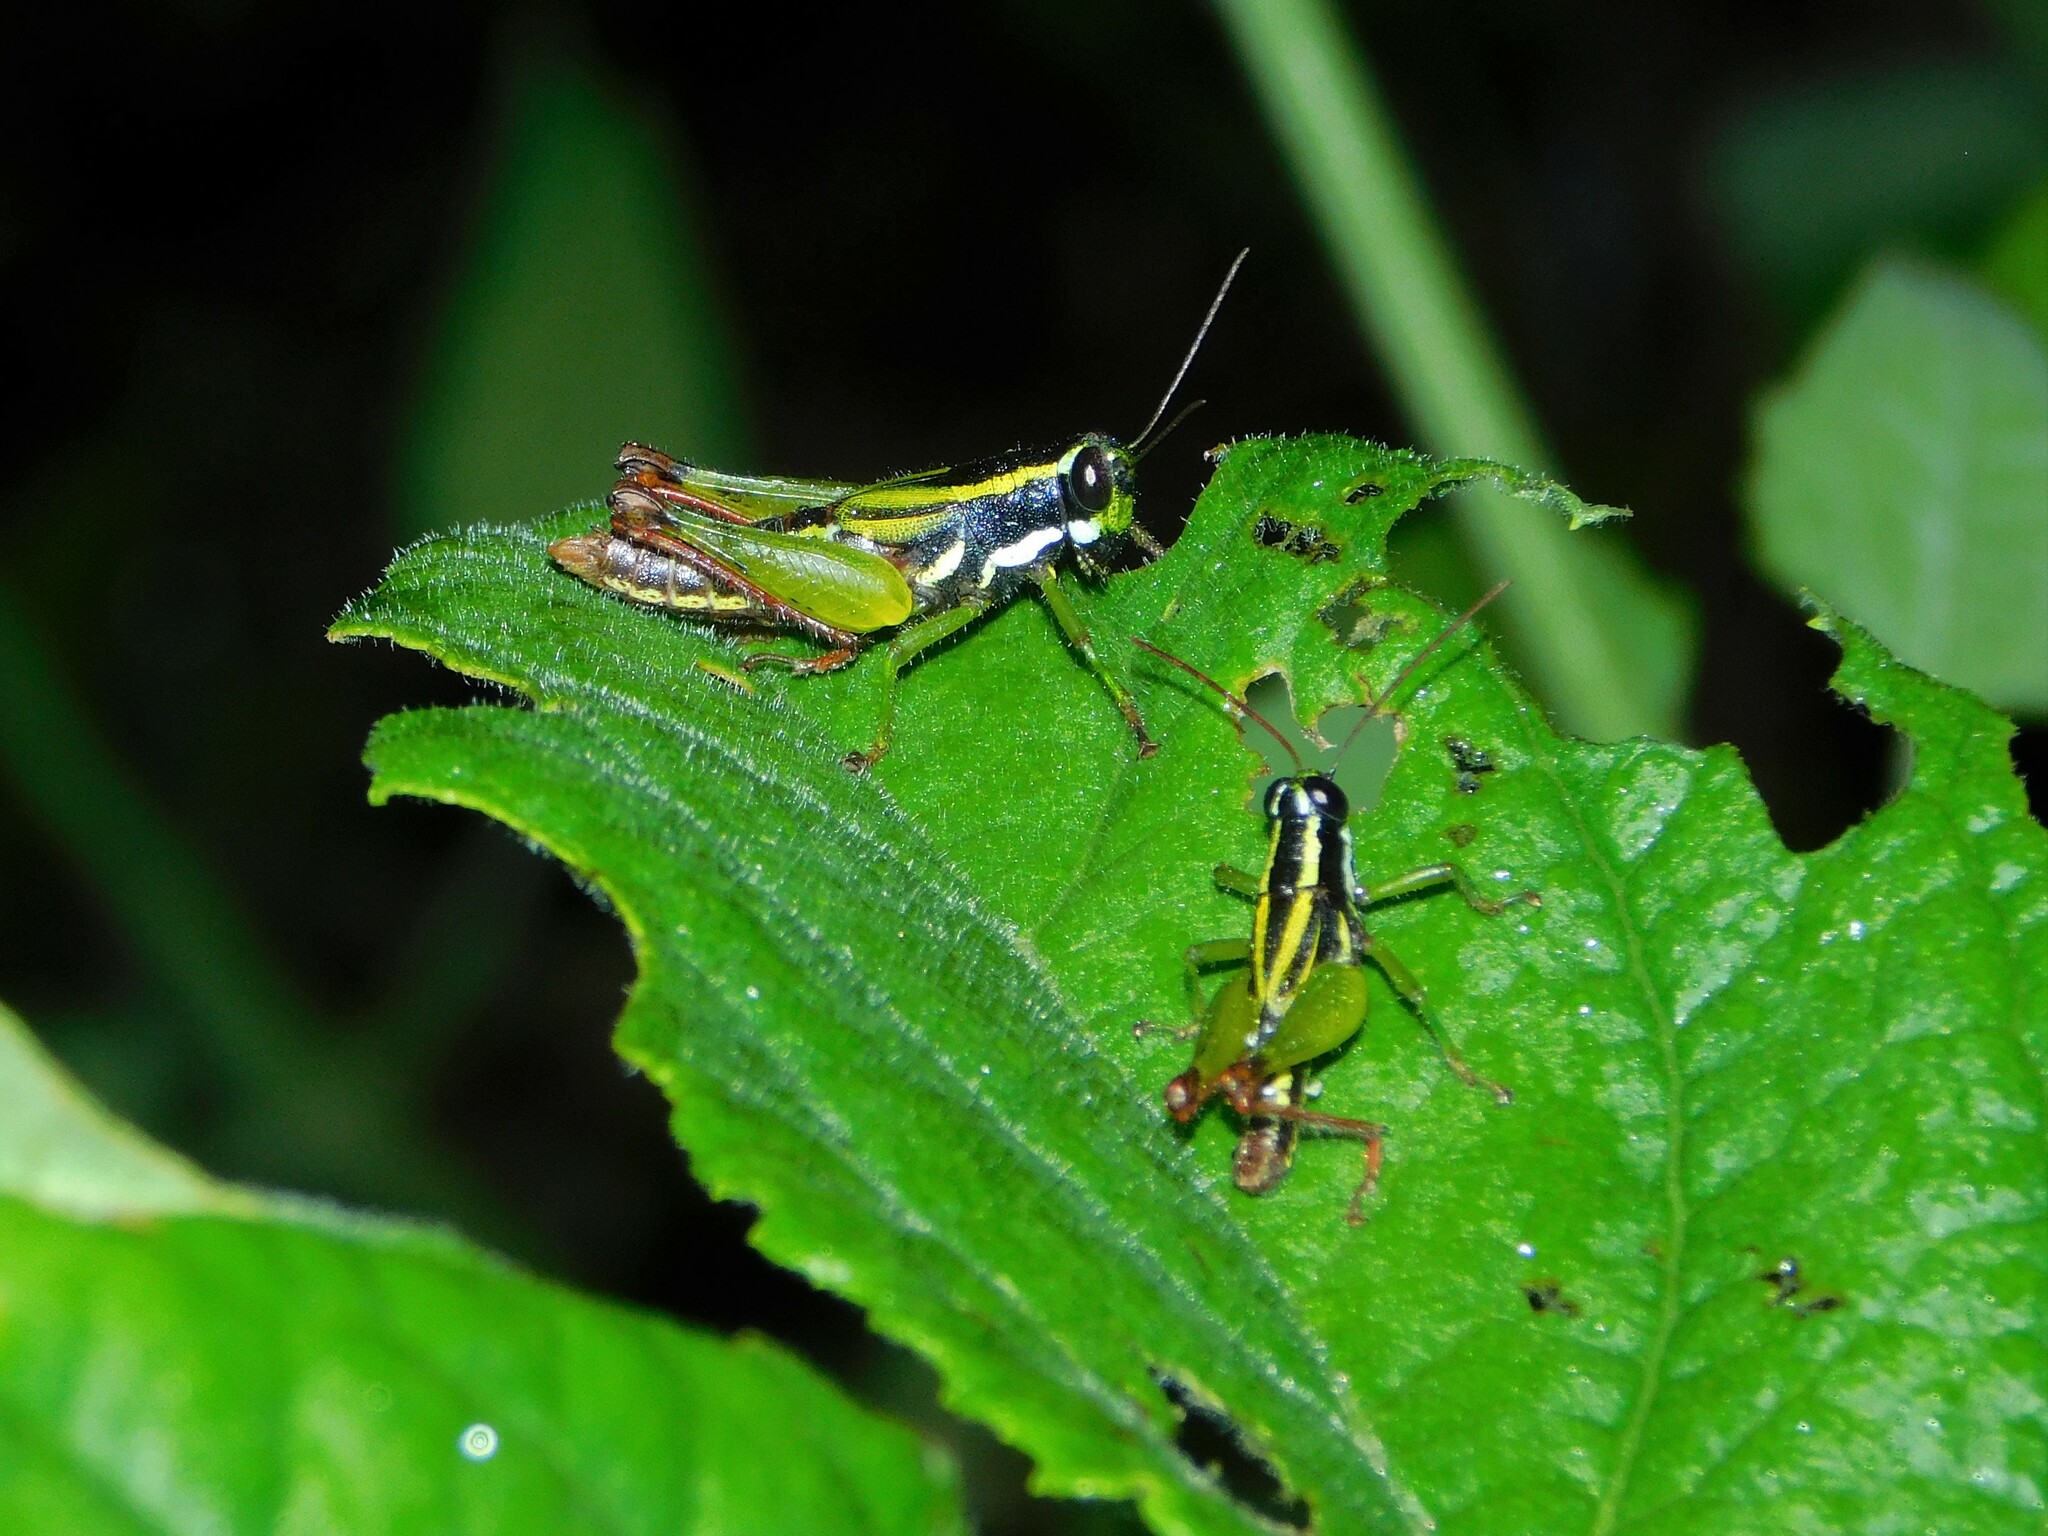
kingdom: Animalia
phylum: Arthropoda
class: Insecta
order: Orthoptera
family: Acrididae
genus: Paracoptacra
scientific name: Paracoptacra cauta
